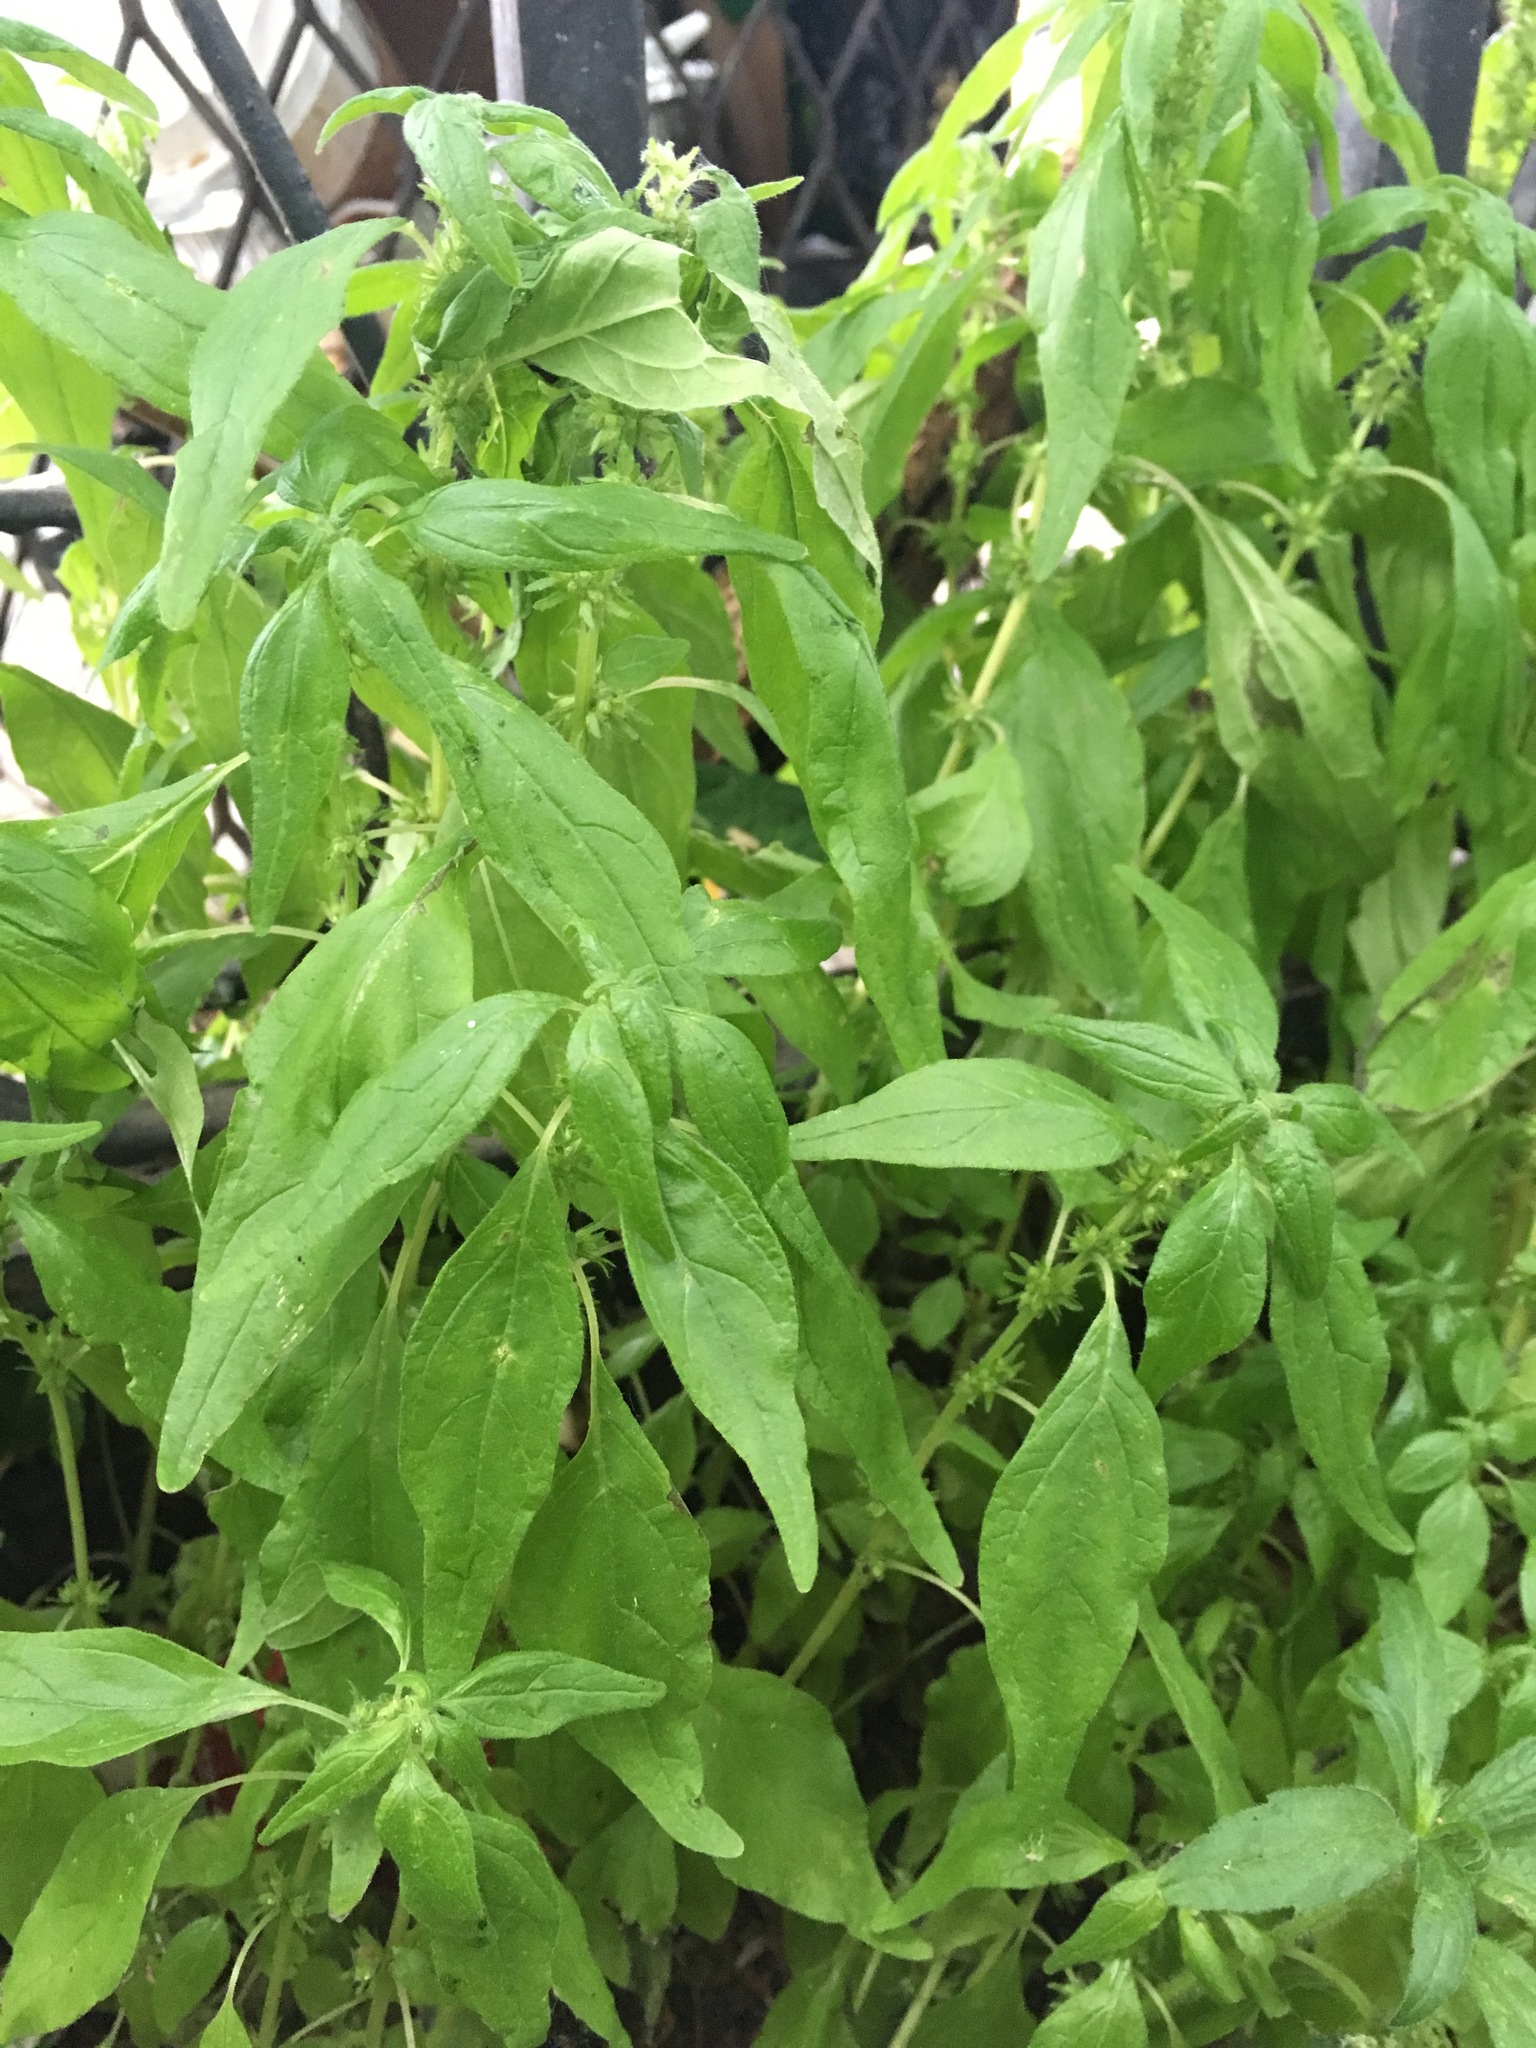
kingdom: Plantae
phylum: Tracheophyta
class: Magnoliopsida
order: Rosales
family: Urticaceae
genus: Parietaria
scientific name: Parietaria pensylvanica
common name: Pennsylvania pellitory
